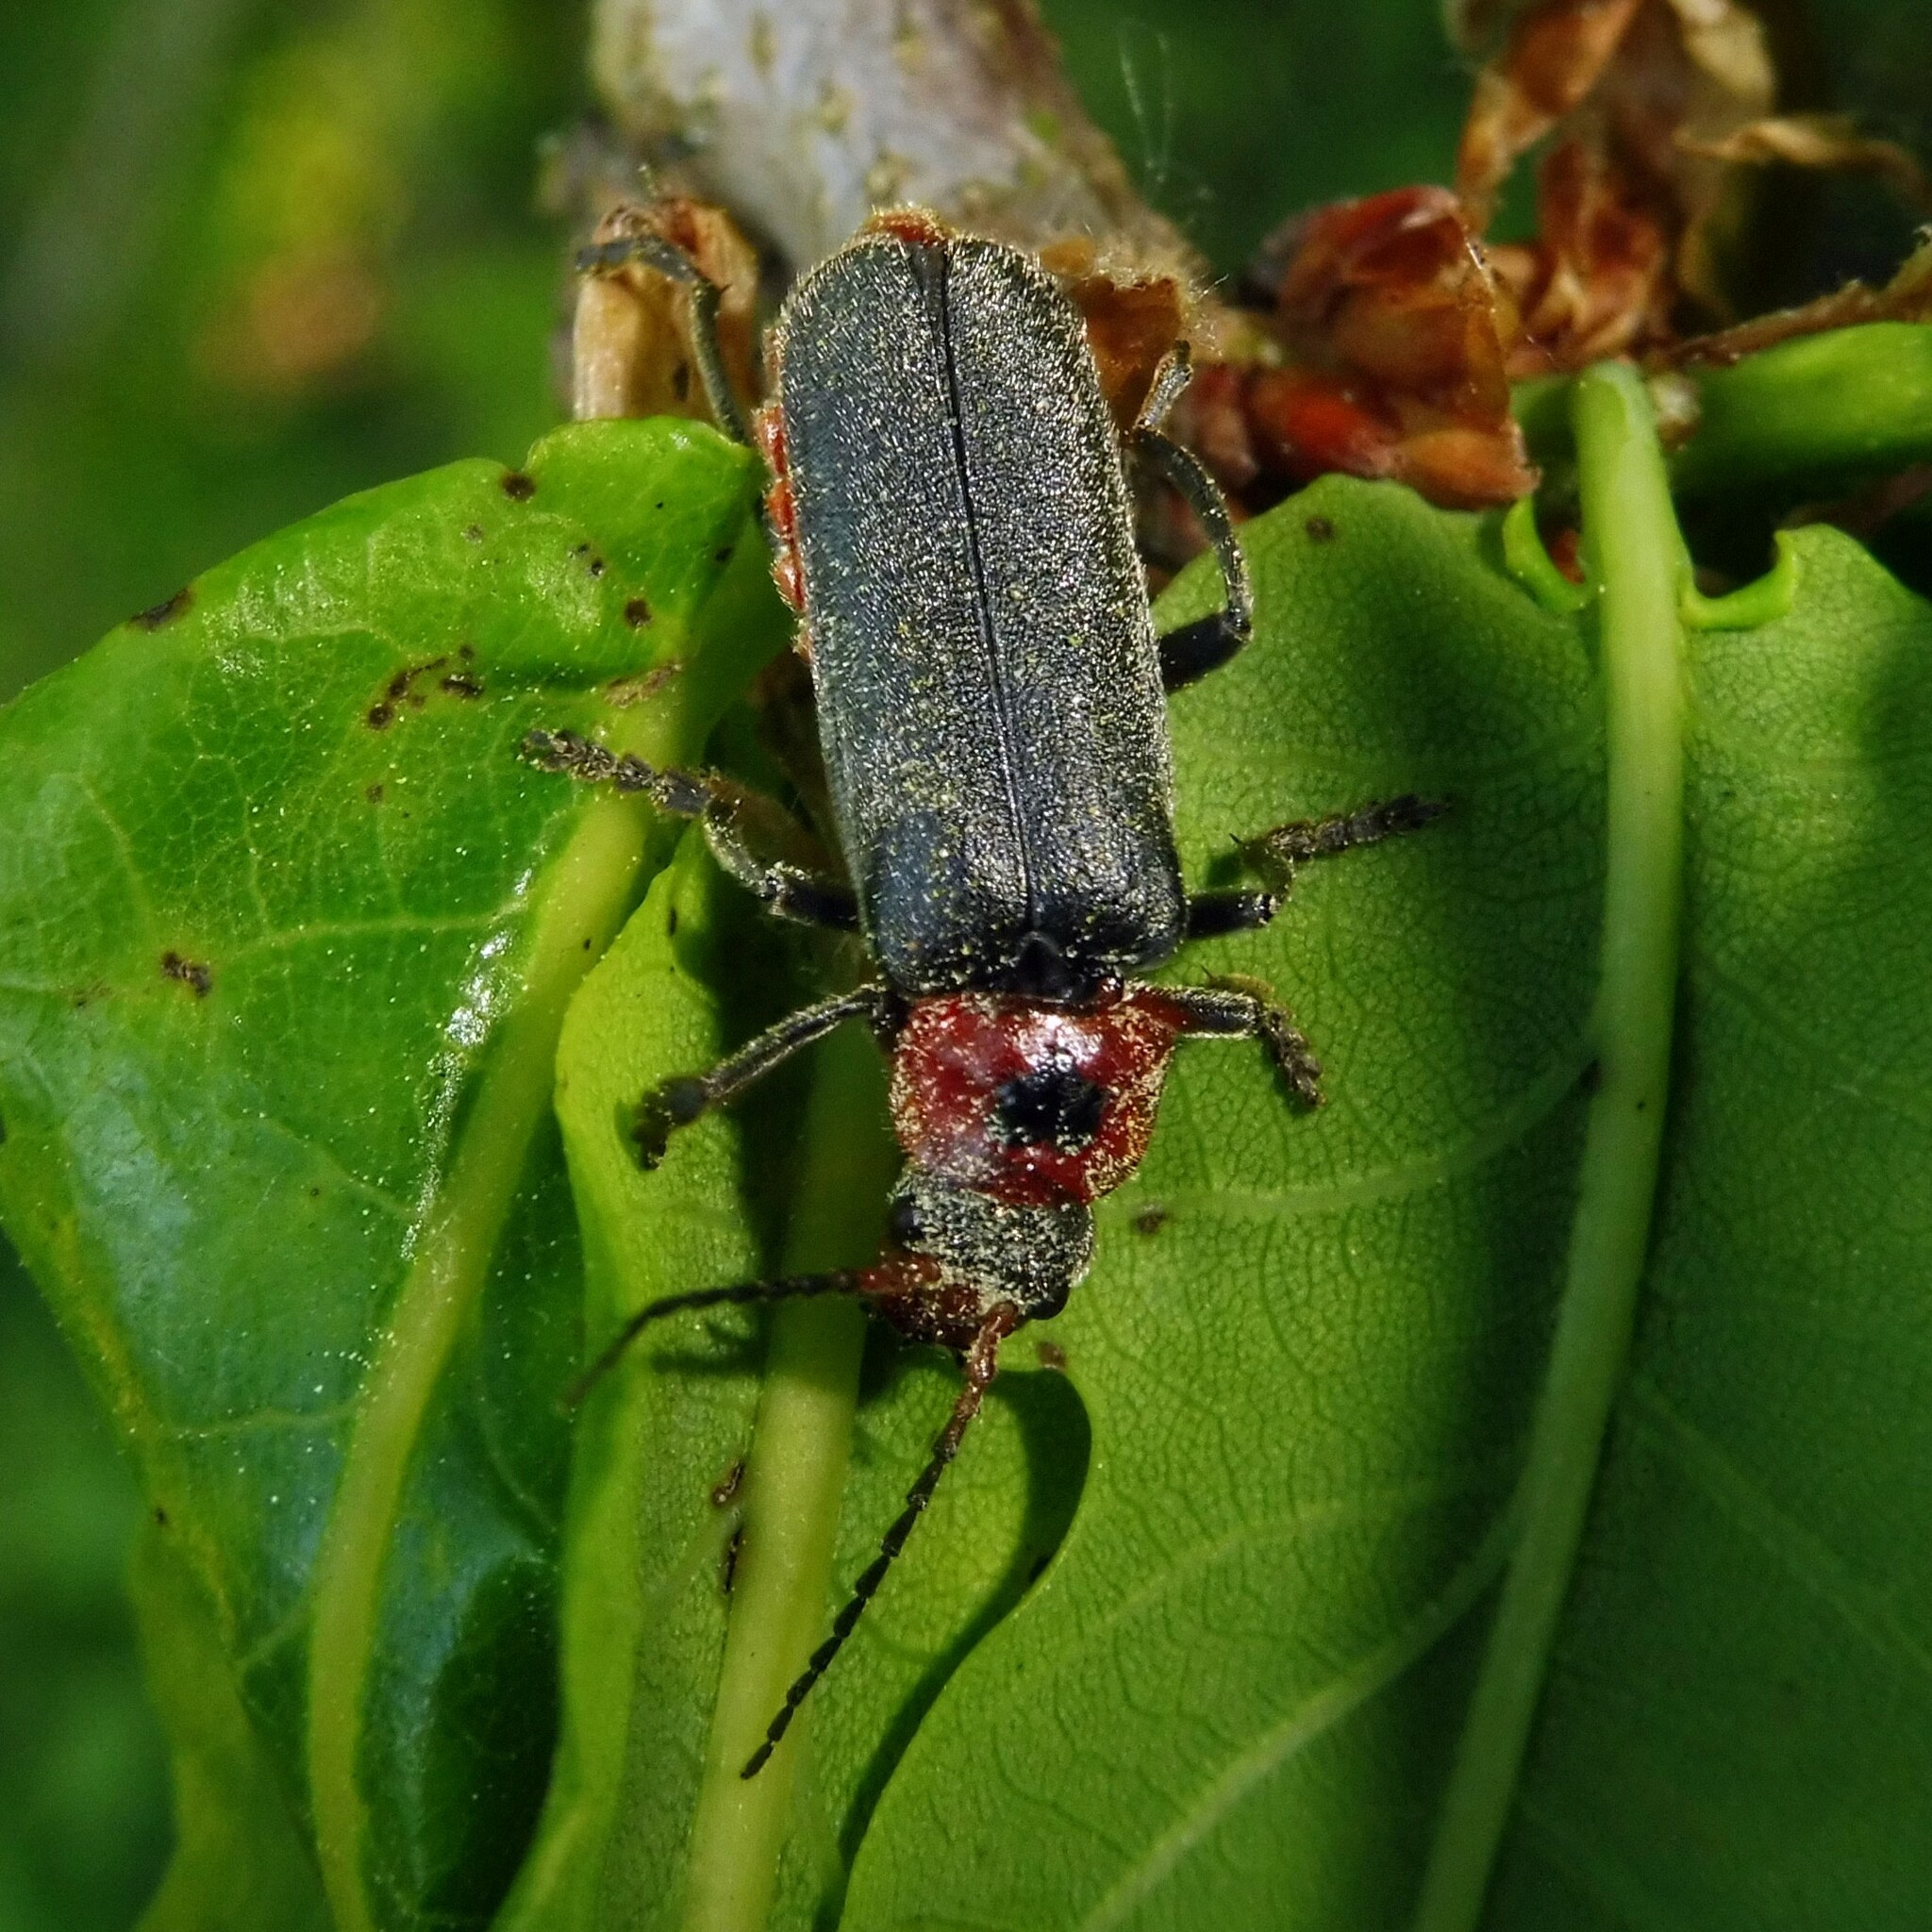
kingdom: Animalia
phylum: Arthropoda
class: Insecta
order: Coleoptera
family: Cantharidae
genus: Cantharis
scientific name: Cantharis rustica
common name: Soldier beetle
